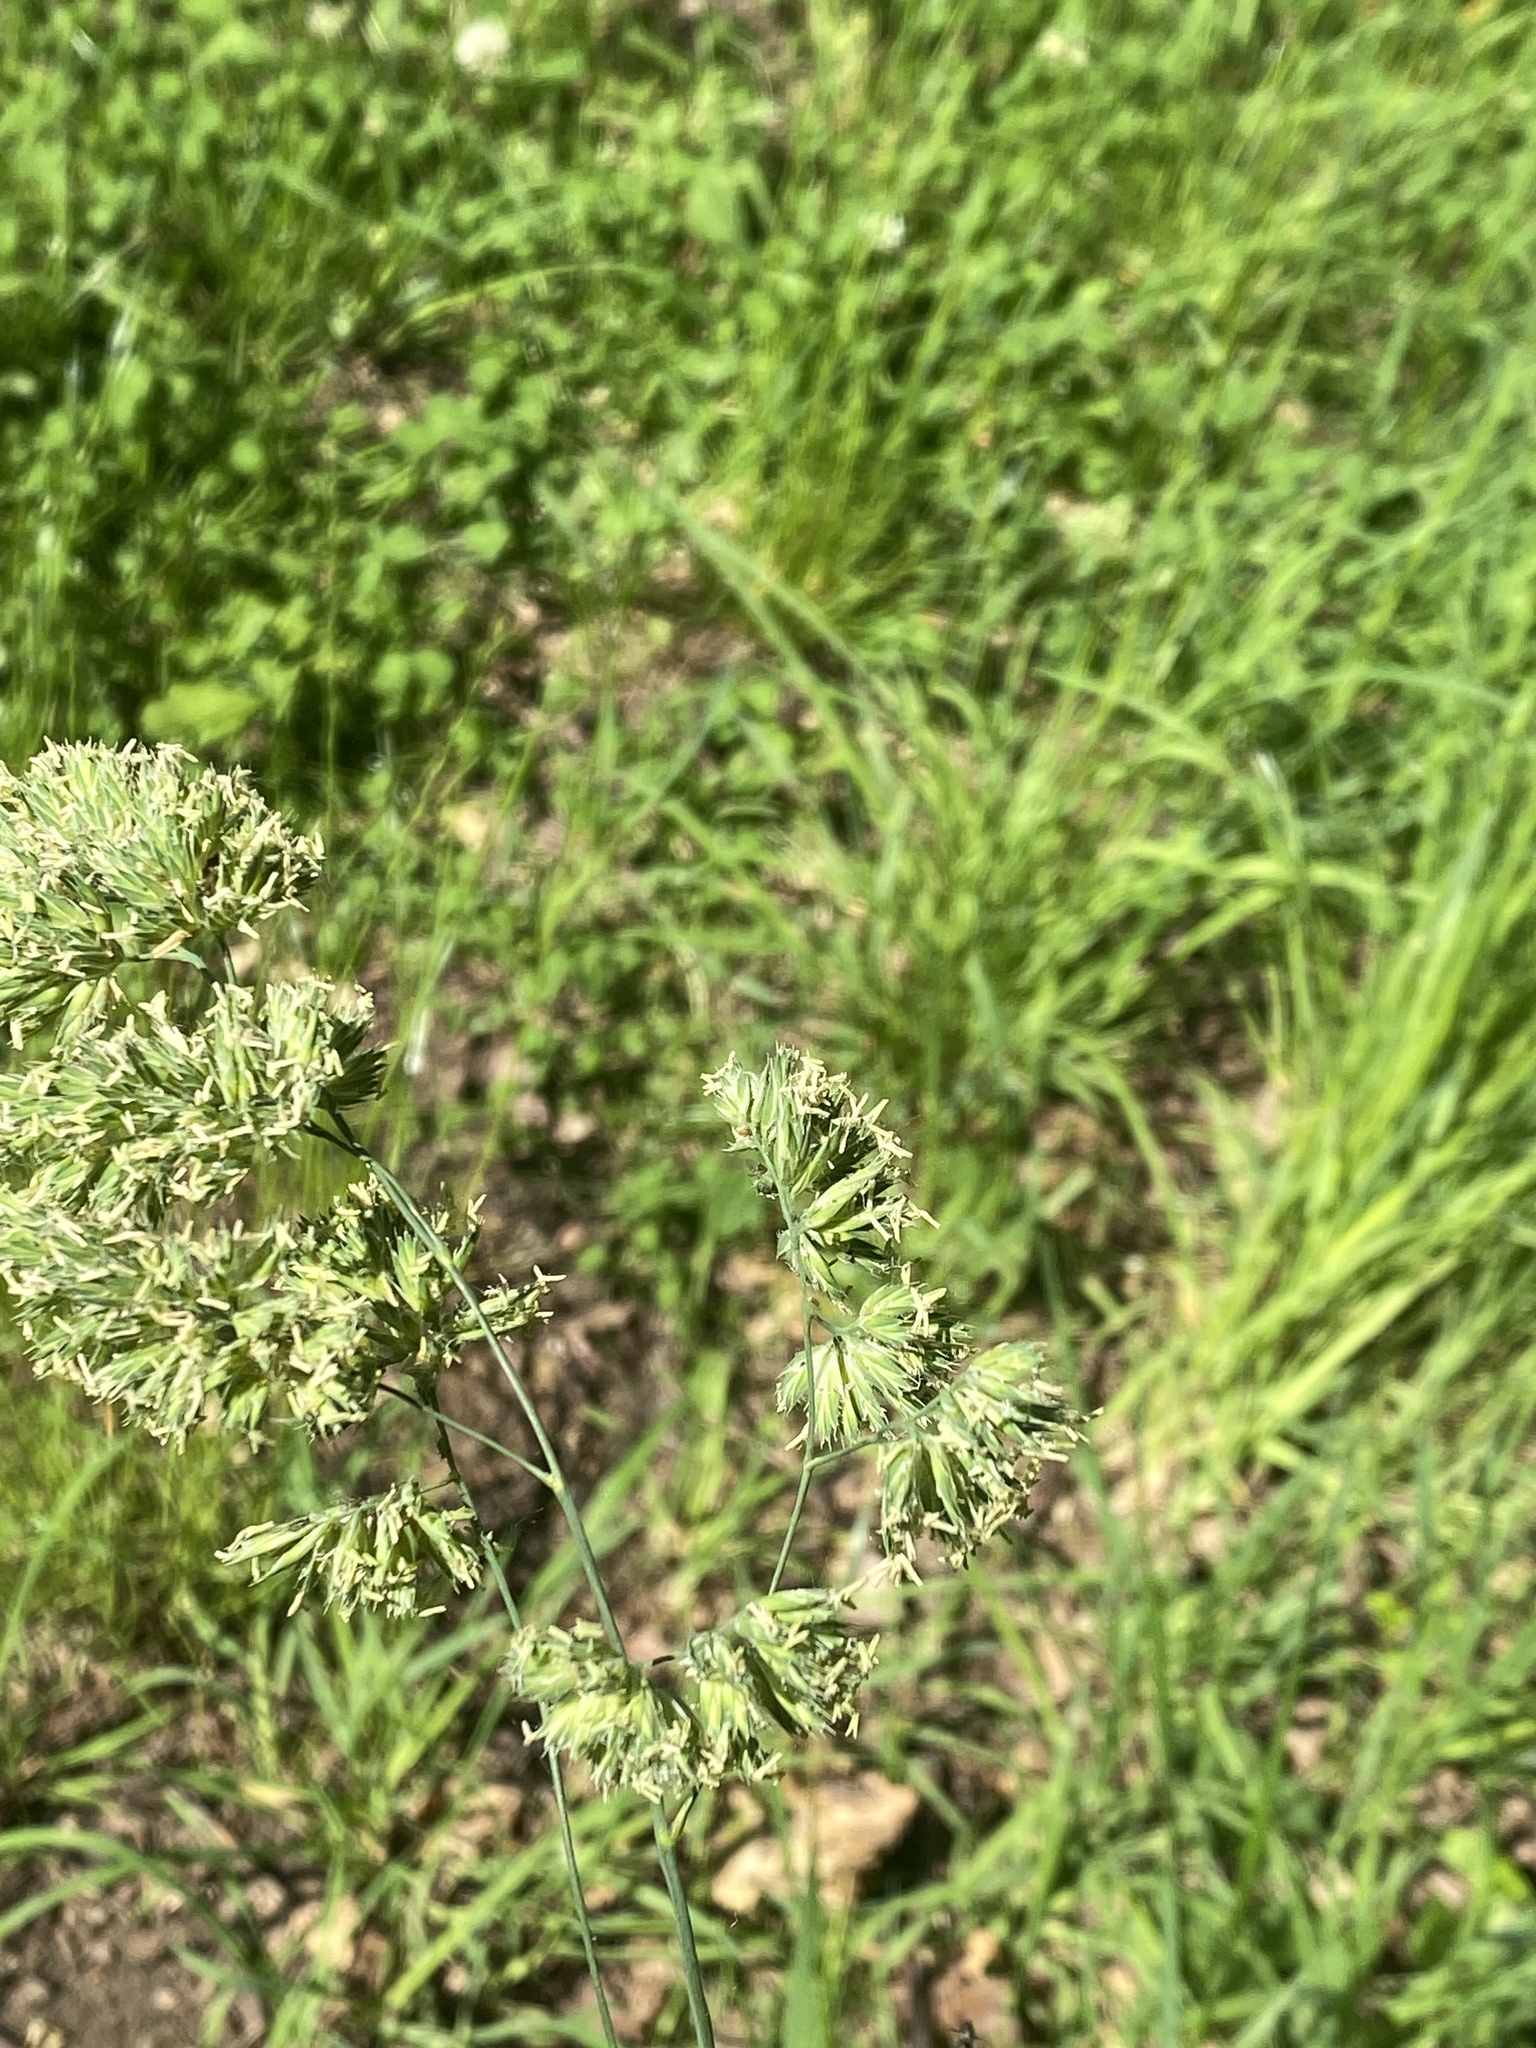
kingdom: Plantae
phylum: Tracheophyta
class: Liliopsida
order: Poales
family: Poaceae
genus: Dactylis
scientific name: Dactylis glomerata
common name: Orchardgrass
